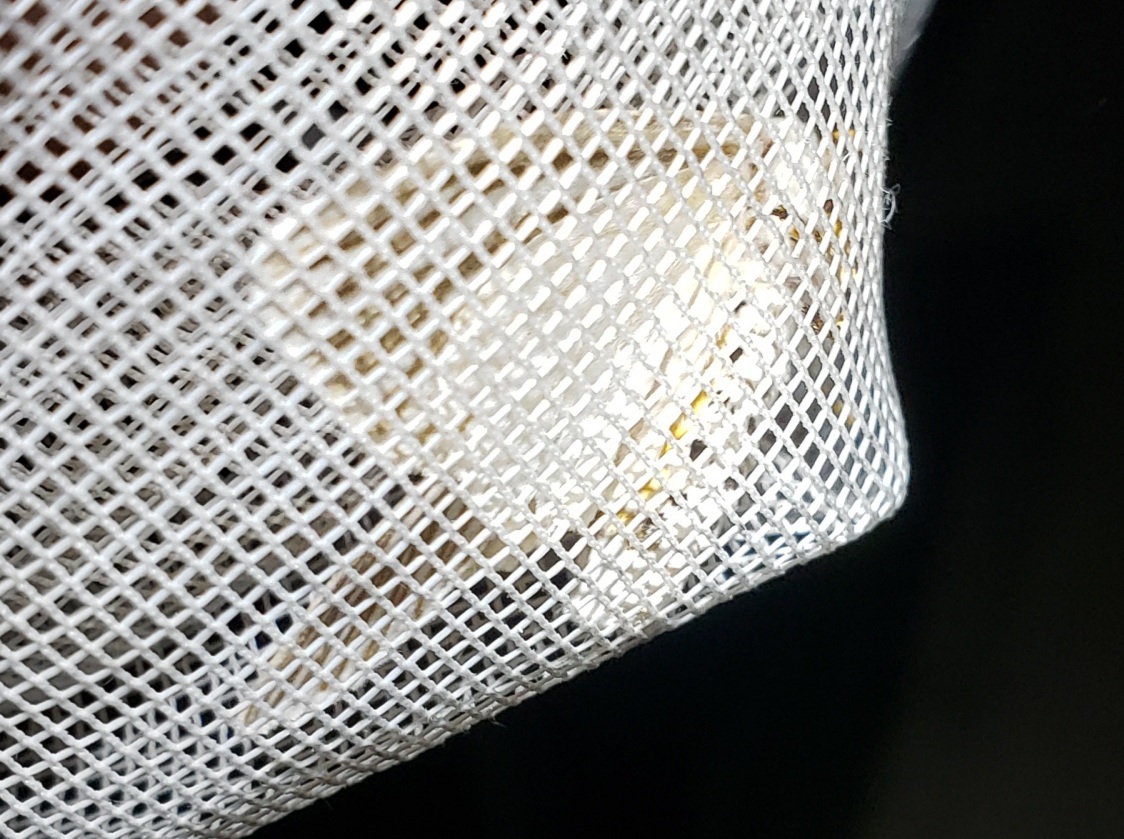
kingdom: Animalia
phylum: Arthropoda
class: Insecta
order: Lepidoptera
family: Erebidae
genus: Seirarctia
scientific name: Seirarctia echo
